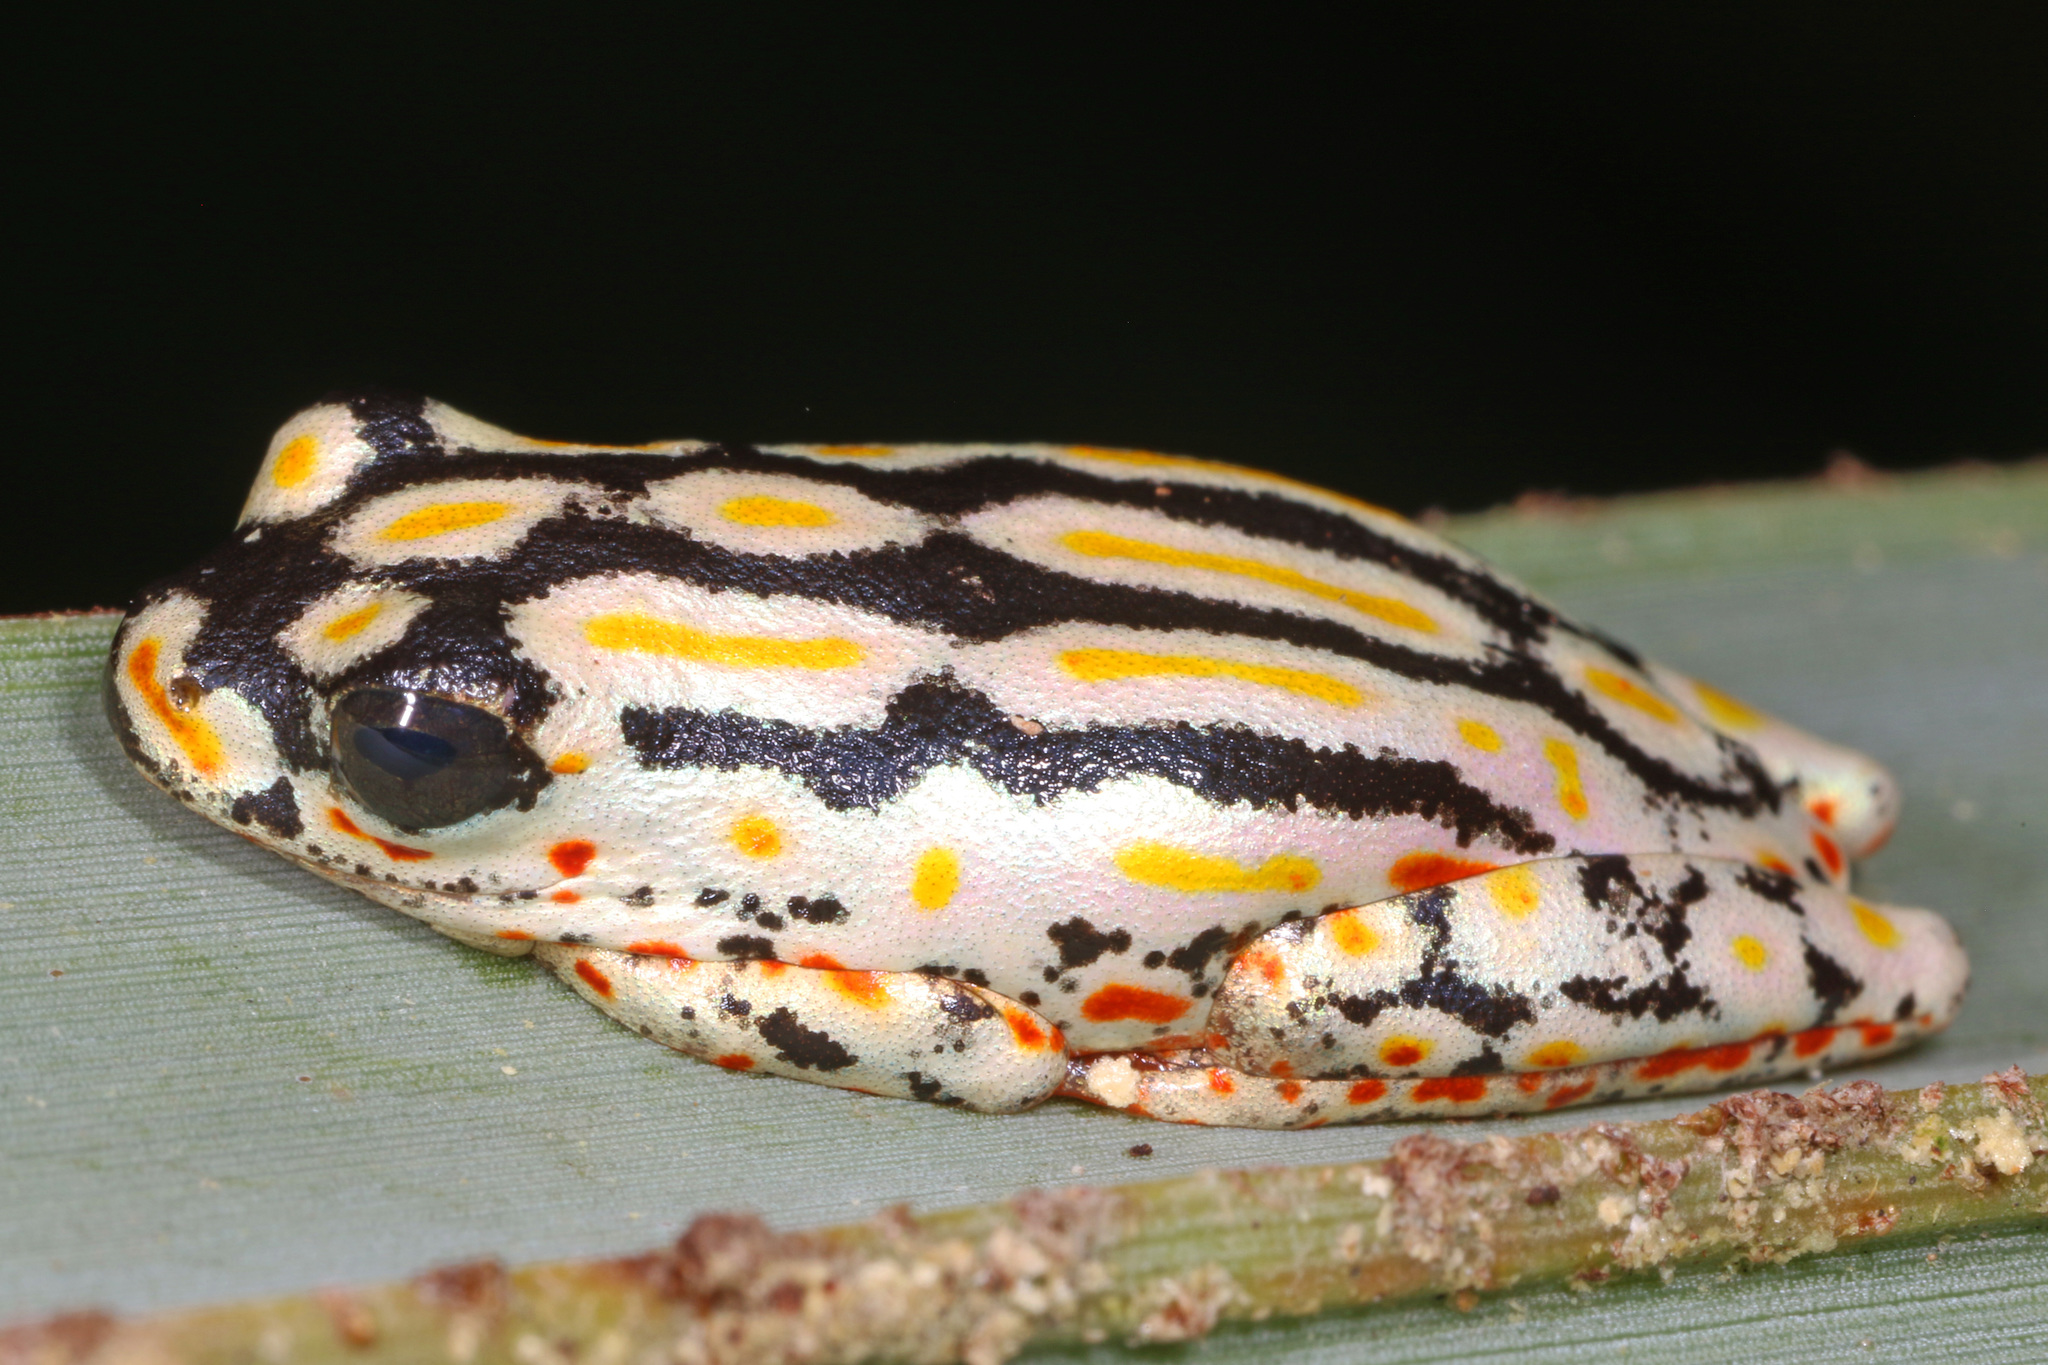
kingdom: Animalia
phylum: Chordata
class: Amphibia
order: Anura
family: Hyperoliidae
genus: Hyperolius
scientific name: Hyperolius marmoratus
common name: Painted reed frog
